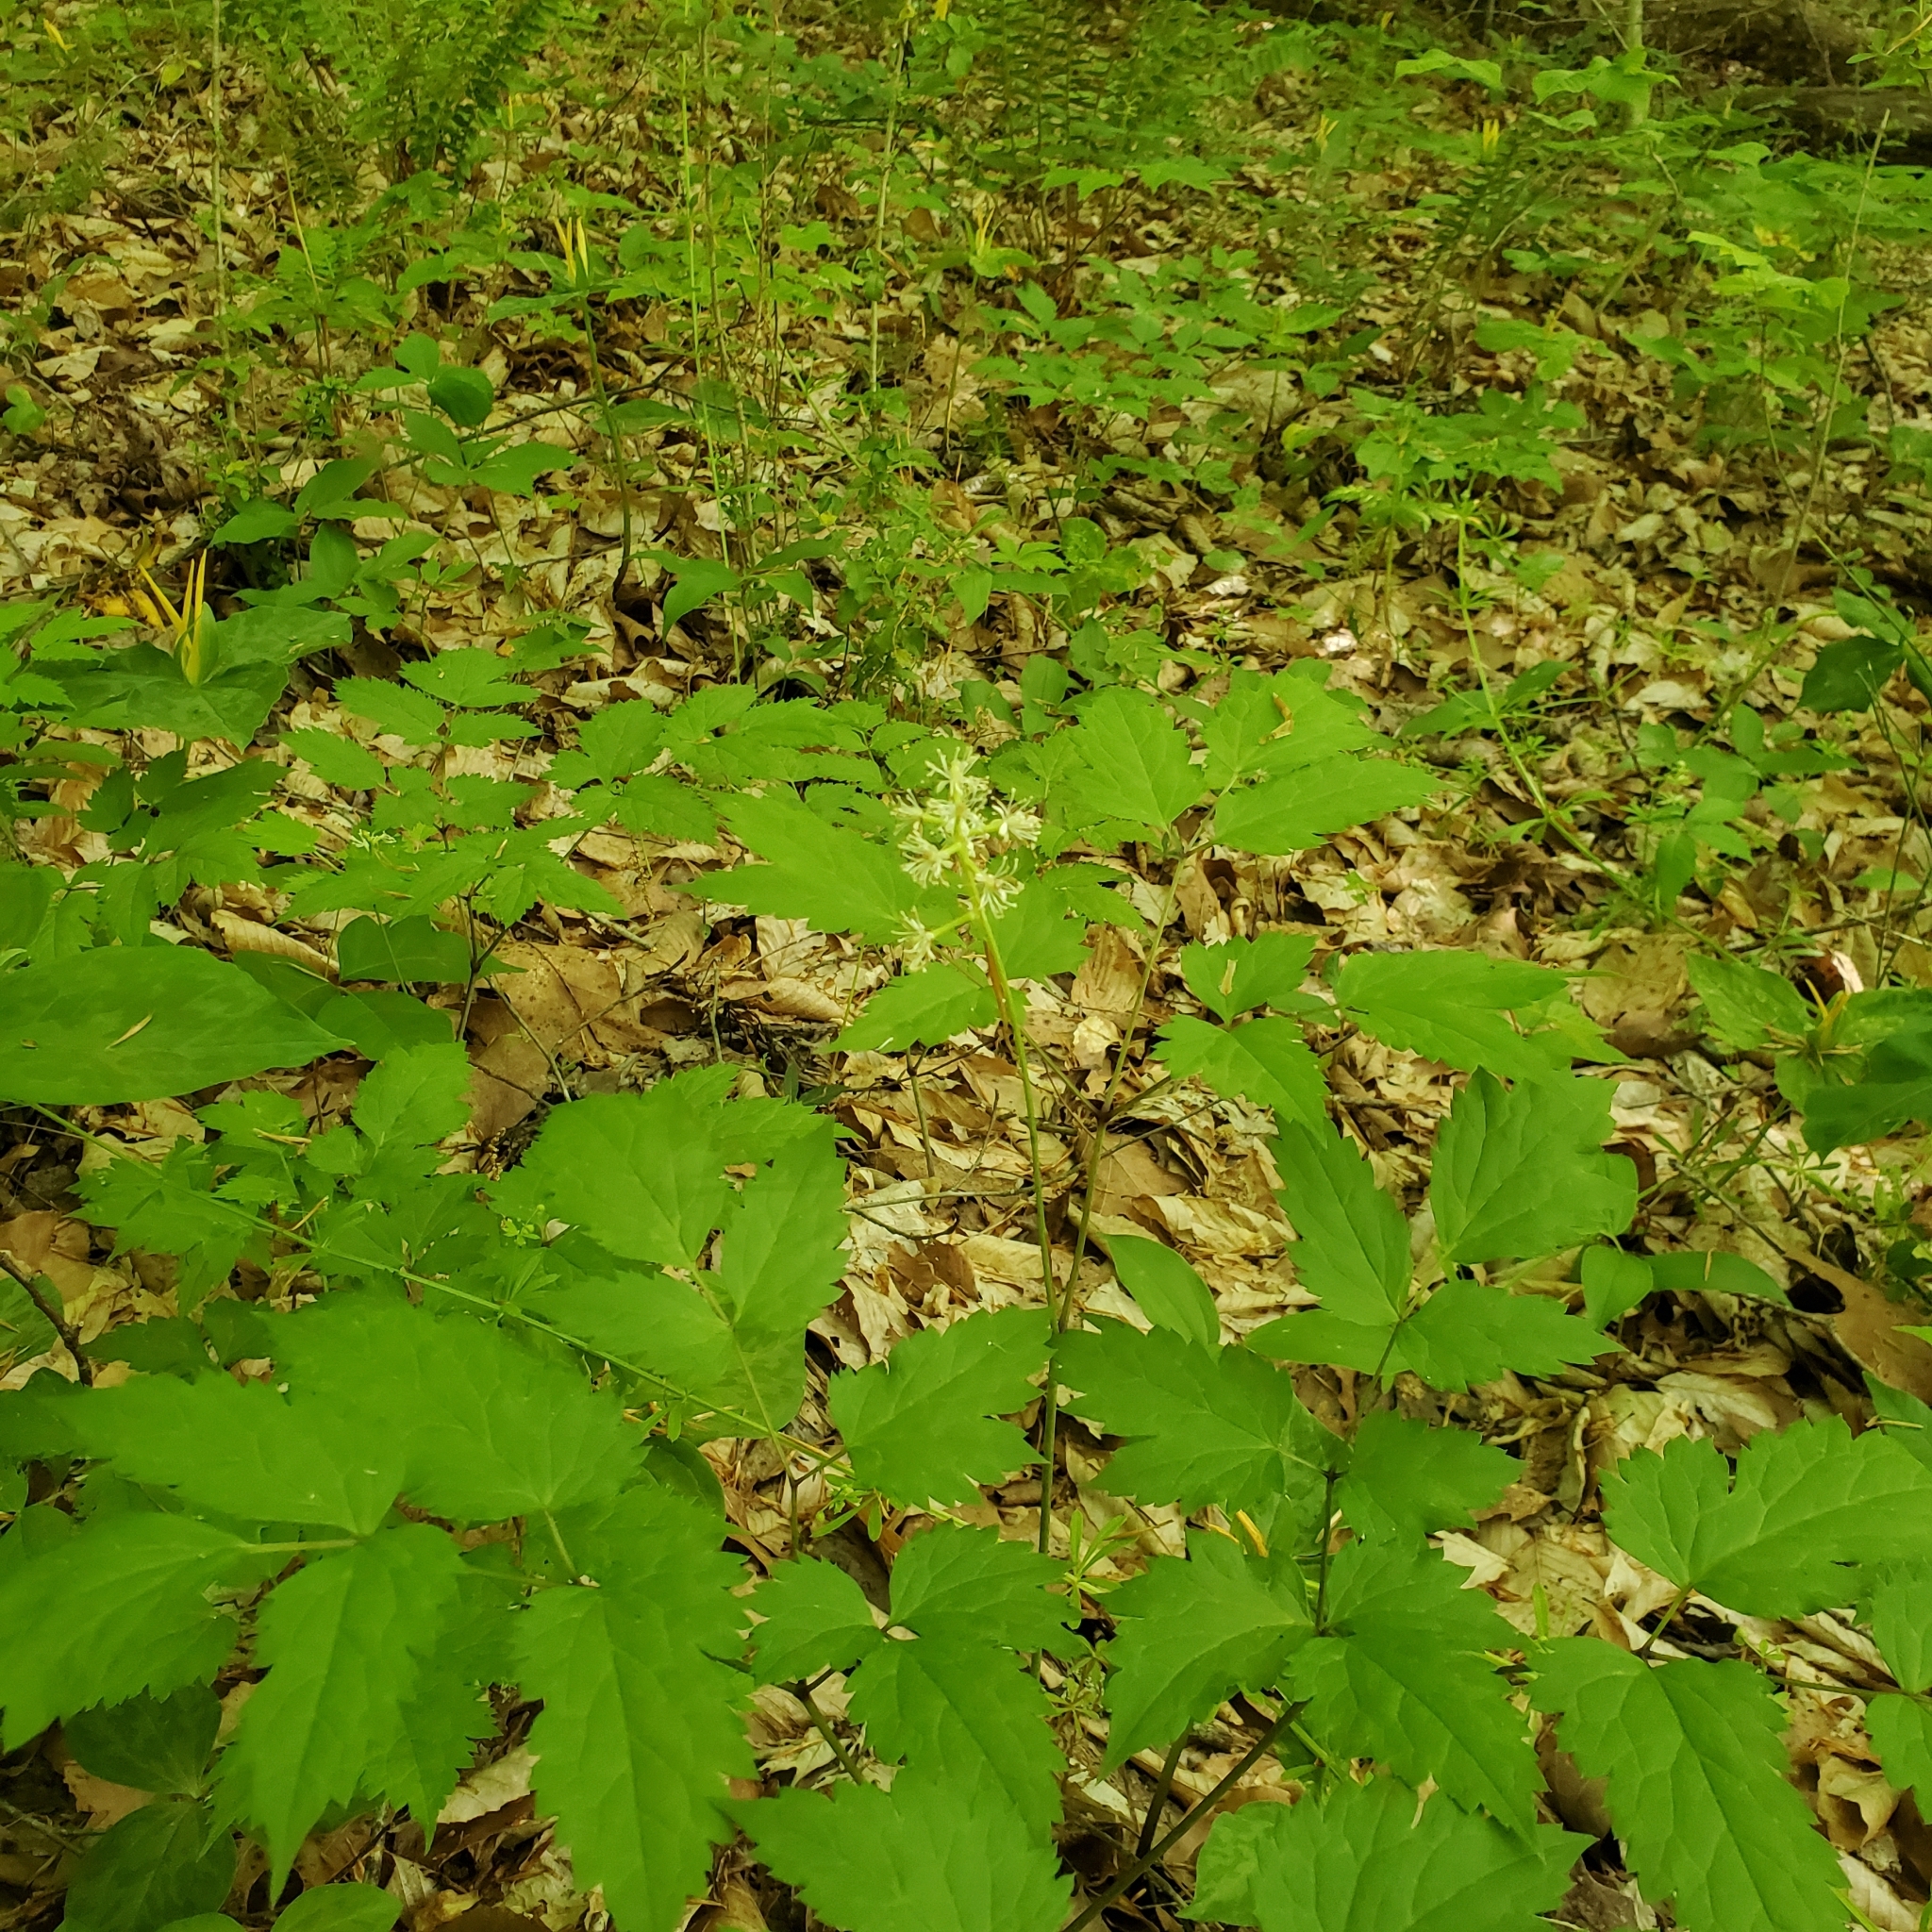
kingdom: Plantae
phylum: Tracheophyta
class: Magnoliopsida
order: Ranunculales
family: Ranunculaceae
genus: Actaea
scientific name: Actaea pachypoda
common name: Doll's-eyes
